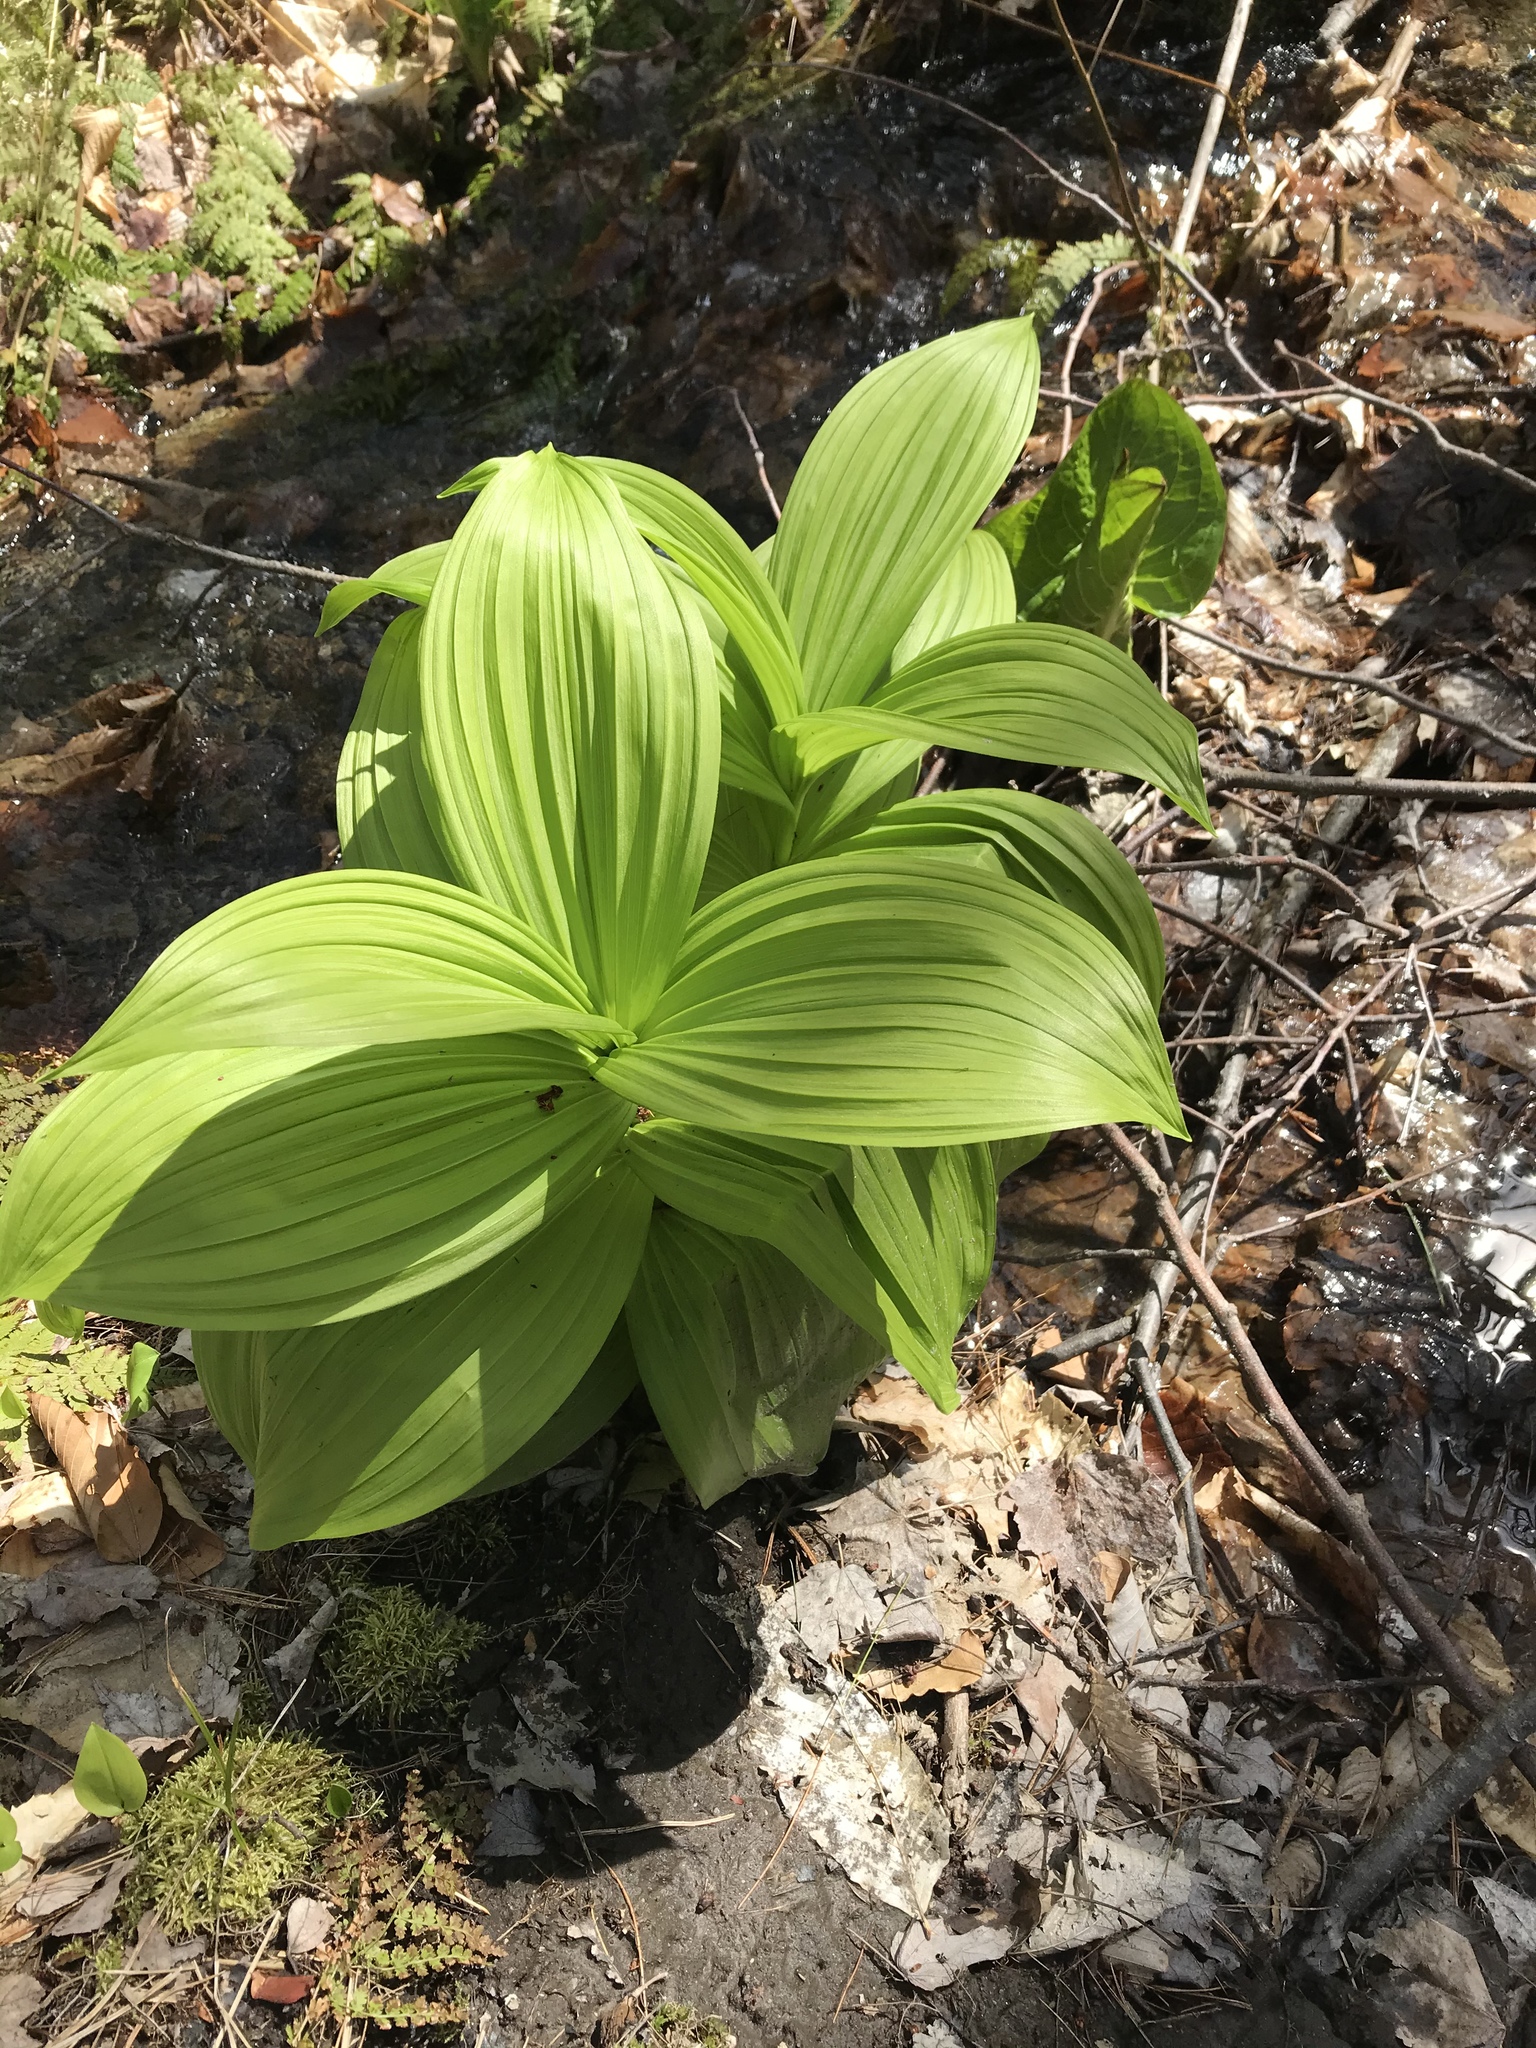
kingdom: Plantae
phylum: Tracheophyta
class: Liliopsida
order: Liliales
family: Melanthiaceae
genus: Veratrum
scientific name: Veratrum viride
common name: American false hellebore
